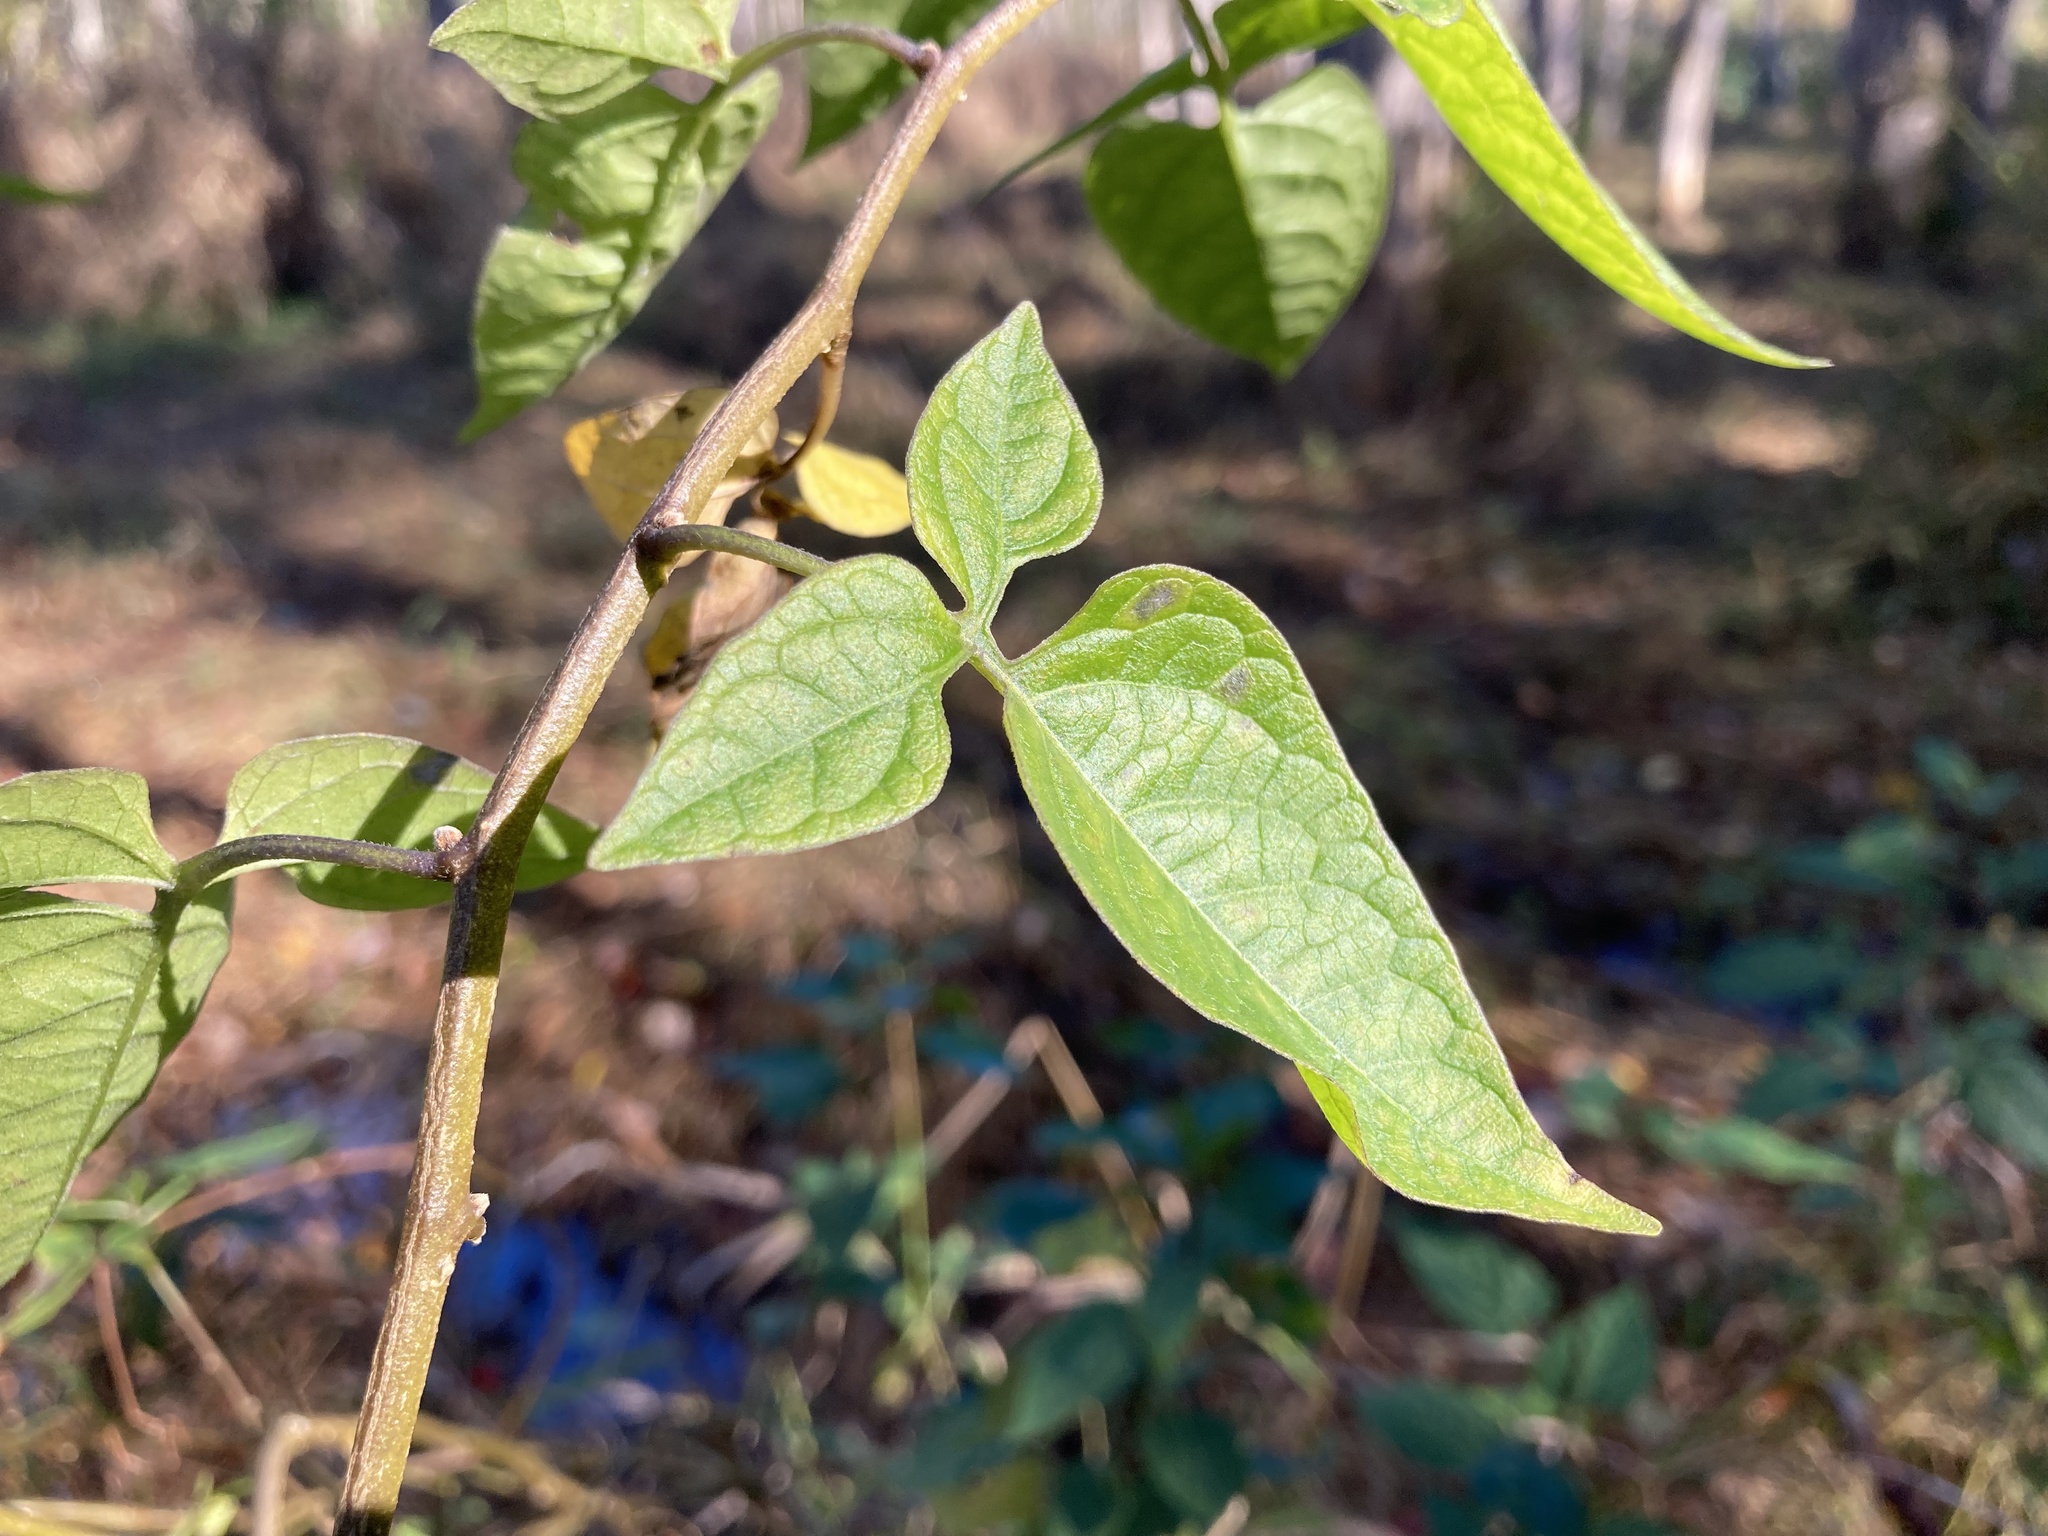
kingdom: Plantae
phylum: Tracheophyta
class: Magnoliopsida
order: Solanales
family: Solanaceae
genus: Solanum
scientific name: Solanum dulcamara
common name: Climbing nightshade
